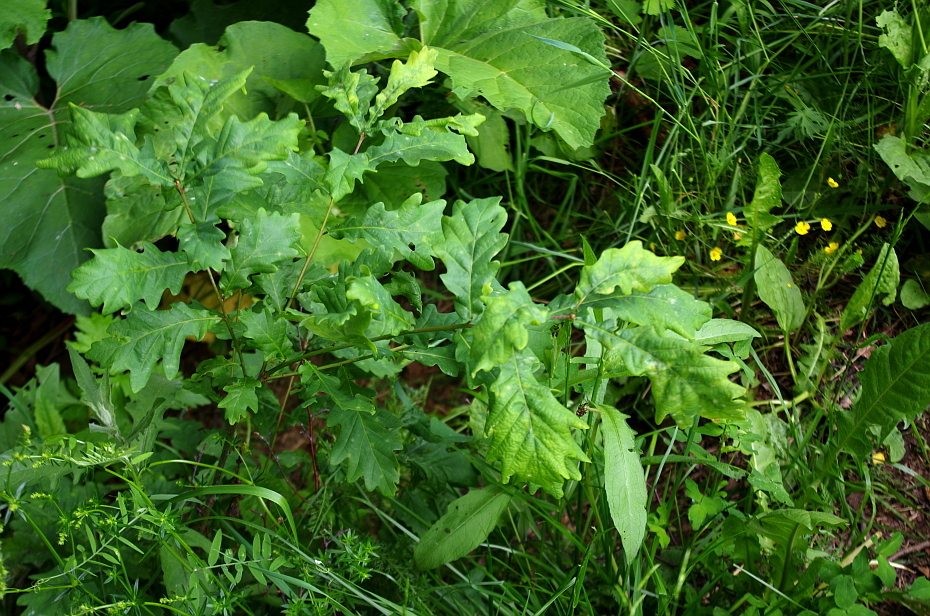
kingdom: Plantae
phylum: Tracheophyta
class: Magnoliopsida
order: Fagales
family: Fagaceae
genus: Quercus
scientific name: Quercus robur
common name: Pedunculate oak
